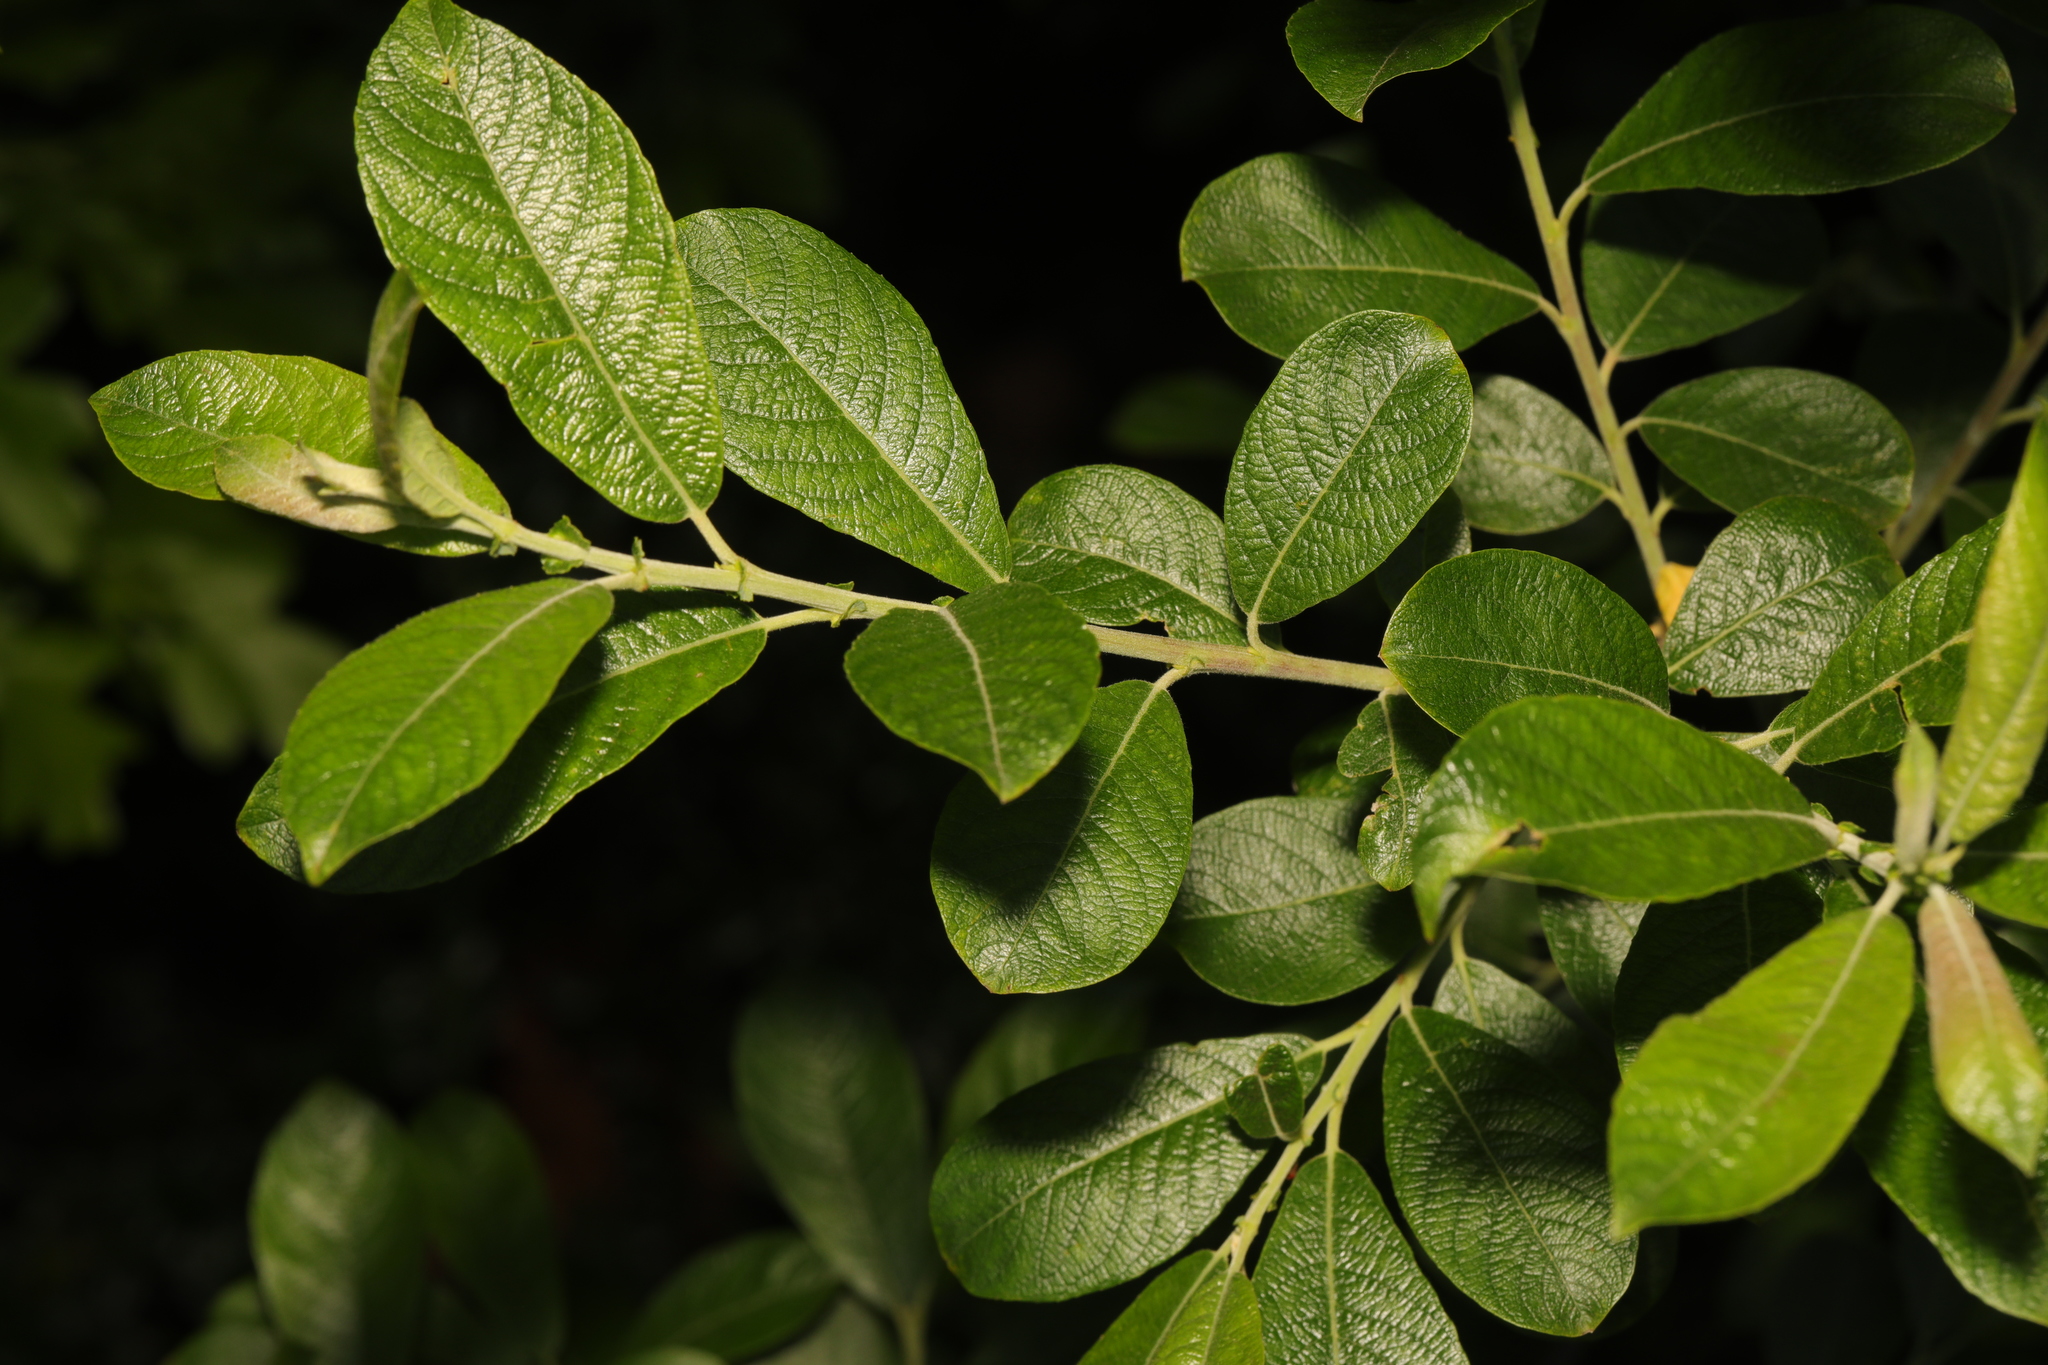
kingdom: Plantae
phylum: Tracheophyta
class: Magnoliopsida
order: Malpighiales
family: Salicaceae
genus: Salix
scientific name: Salix atrocinerea
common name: Rusty willow
